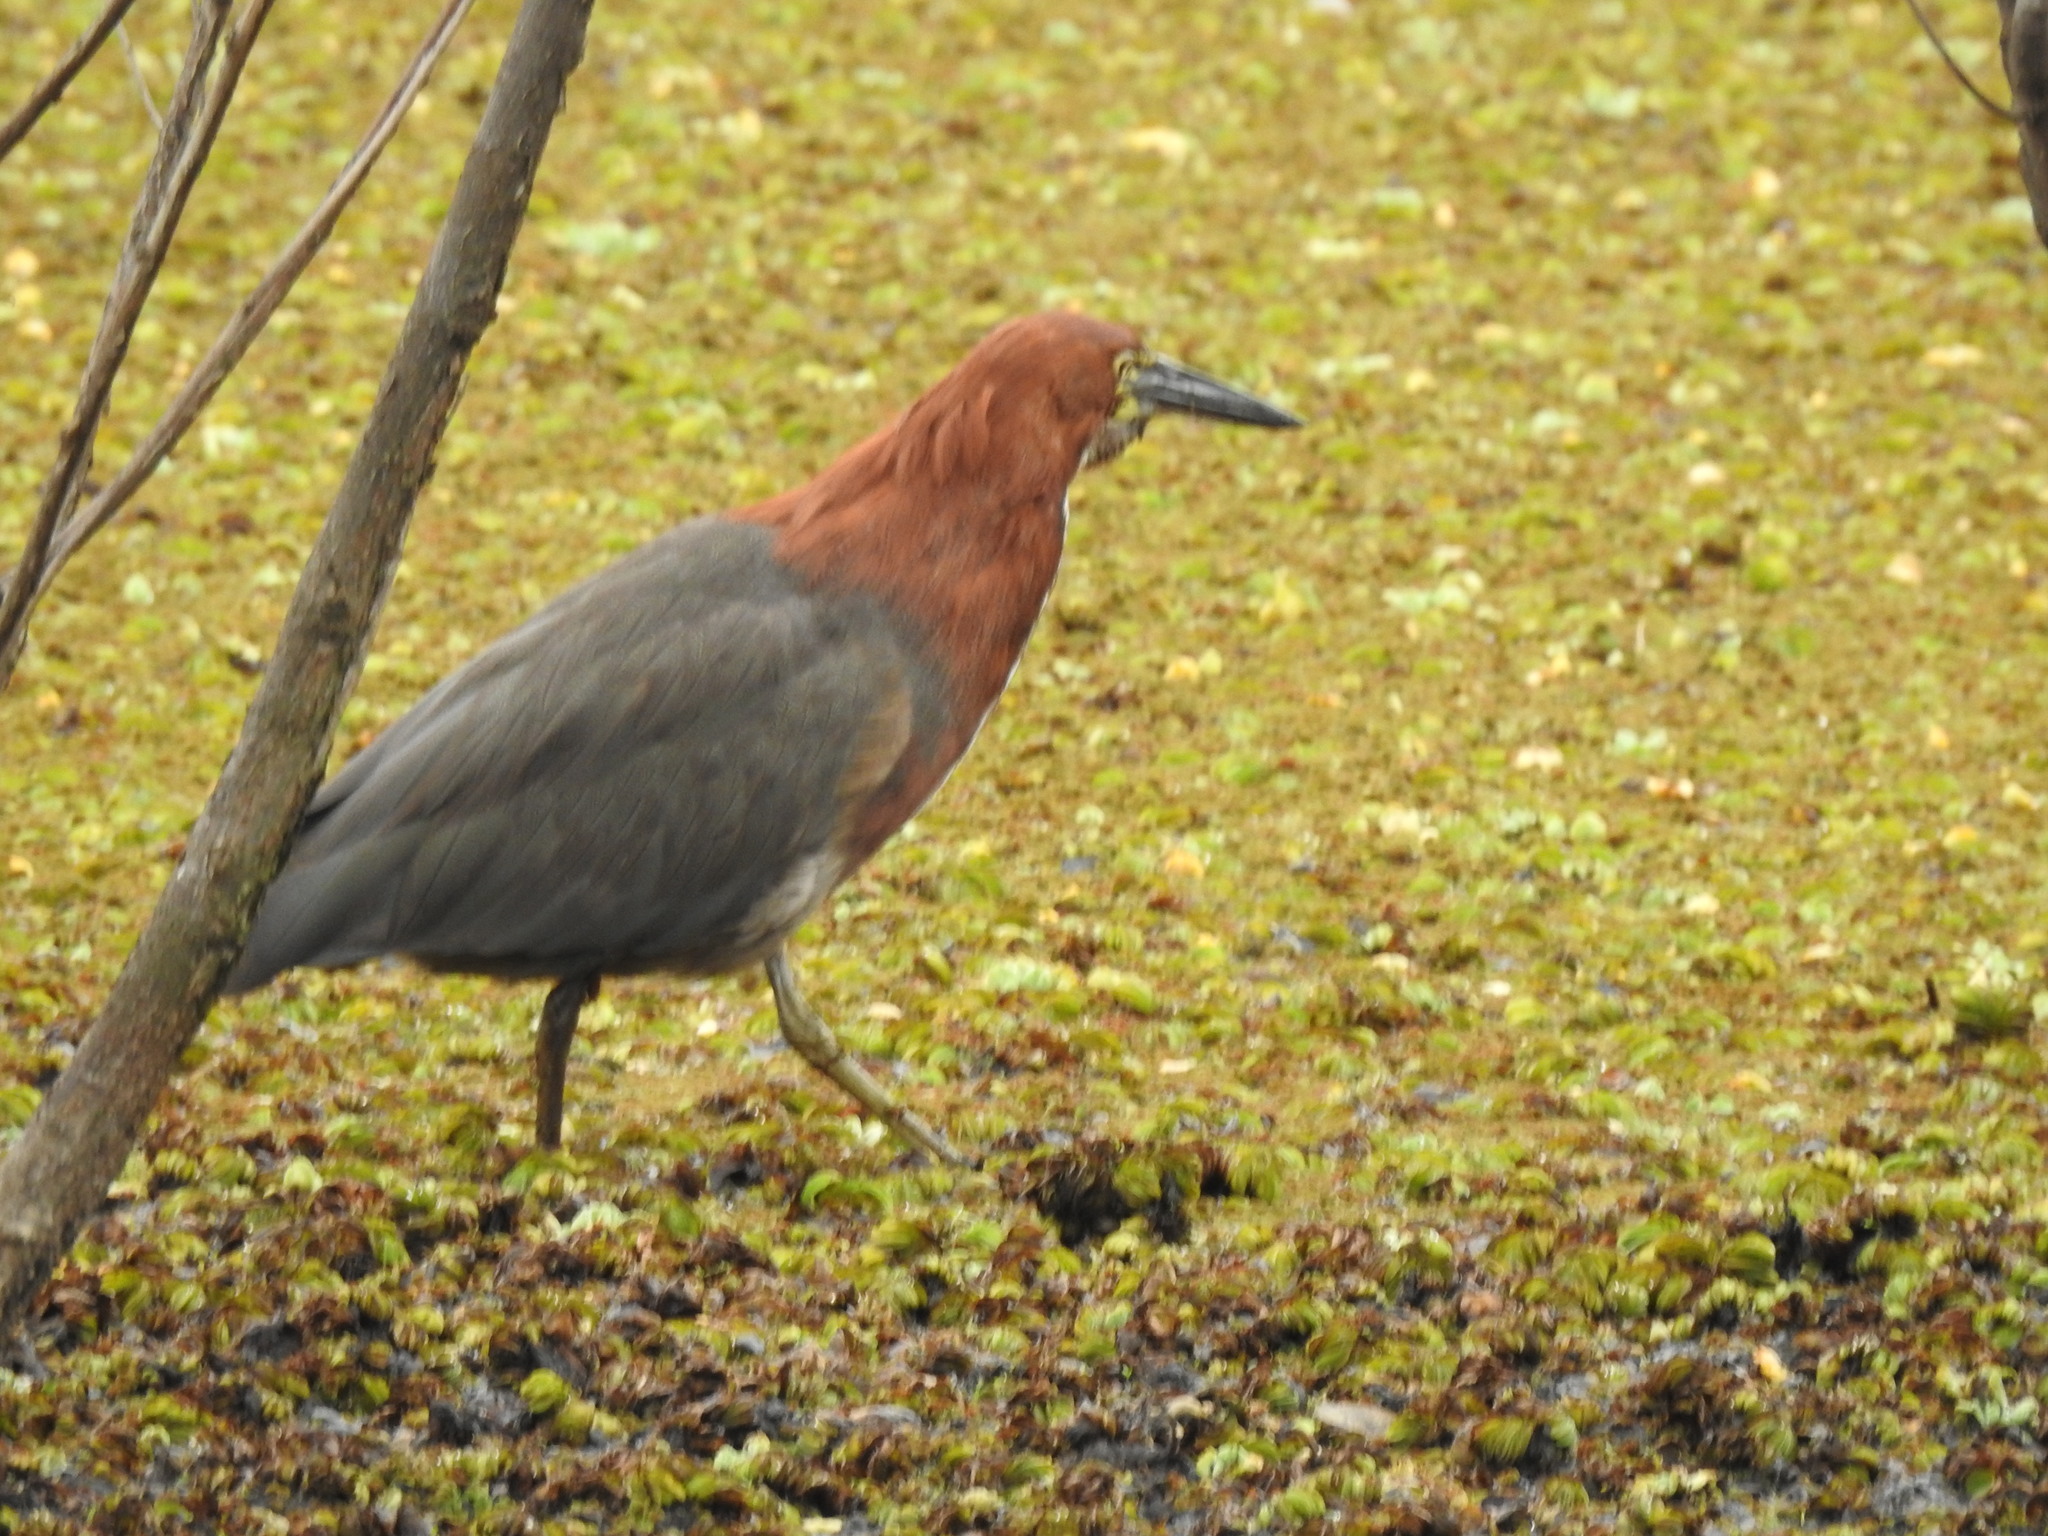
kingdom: Animalia
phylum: Chordata
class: Aves
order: Pelecaniformes
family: Ardeidae
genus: Tigrisoma
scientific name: Tigrisoma lineatum
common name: Rufescent tiger-heron
